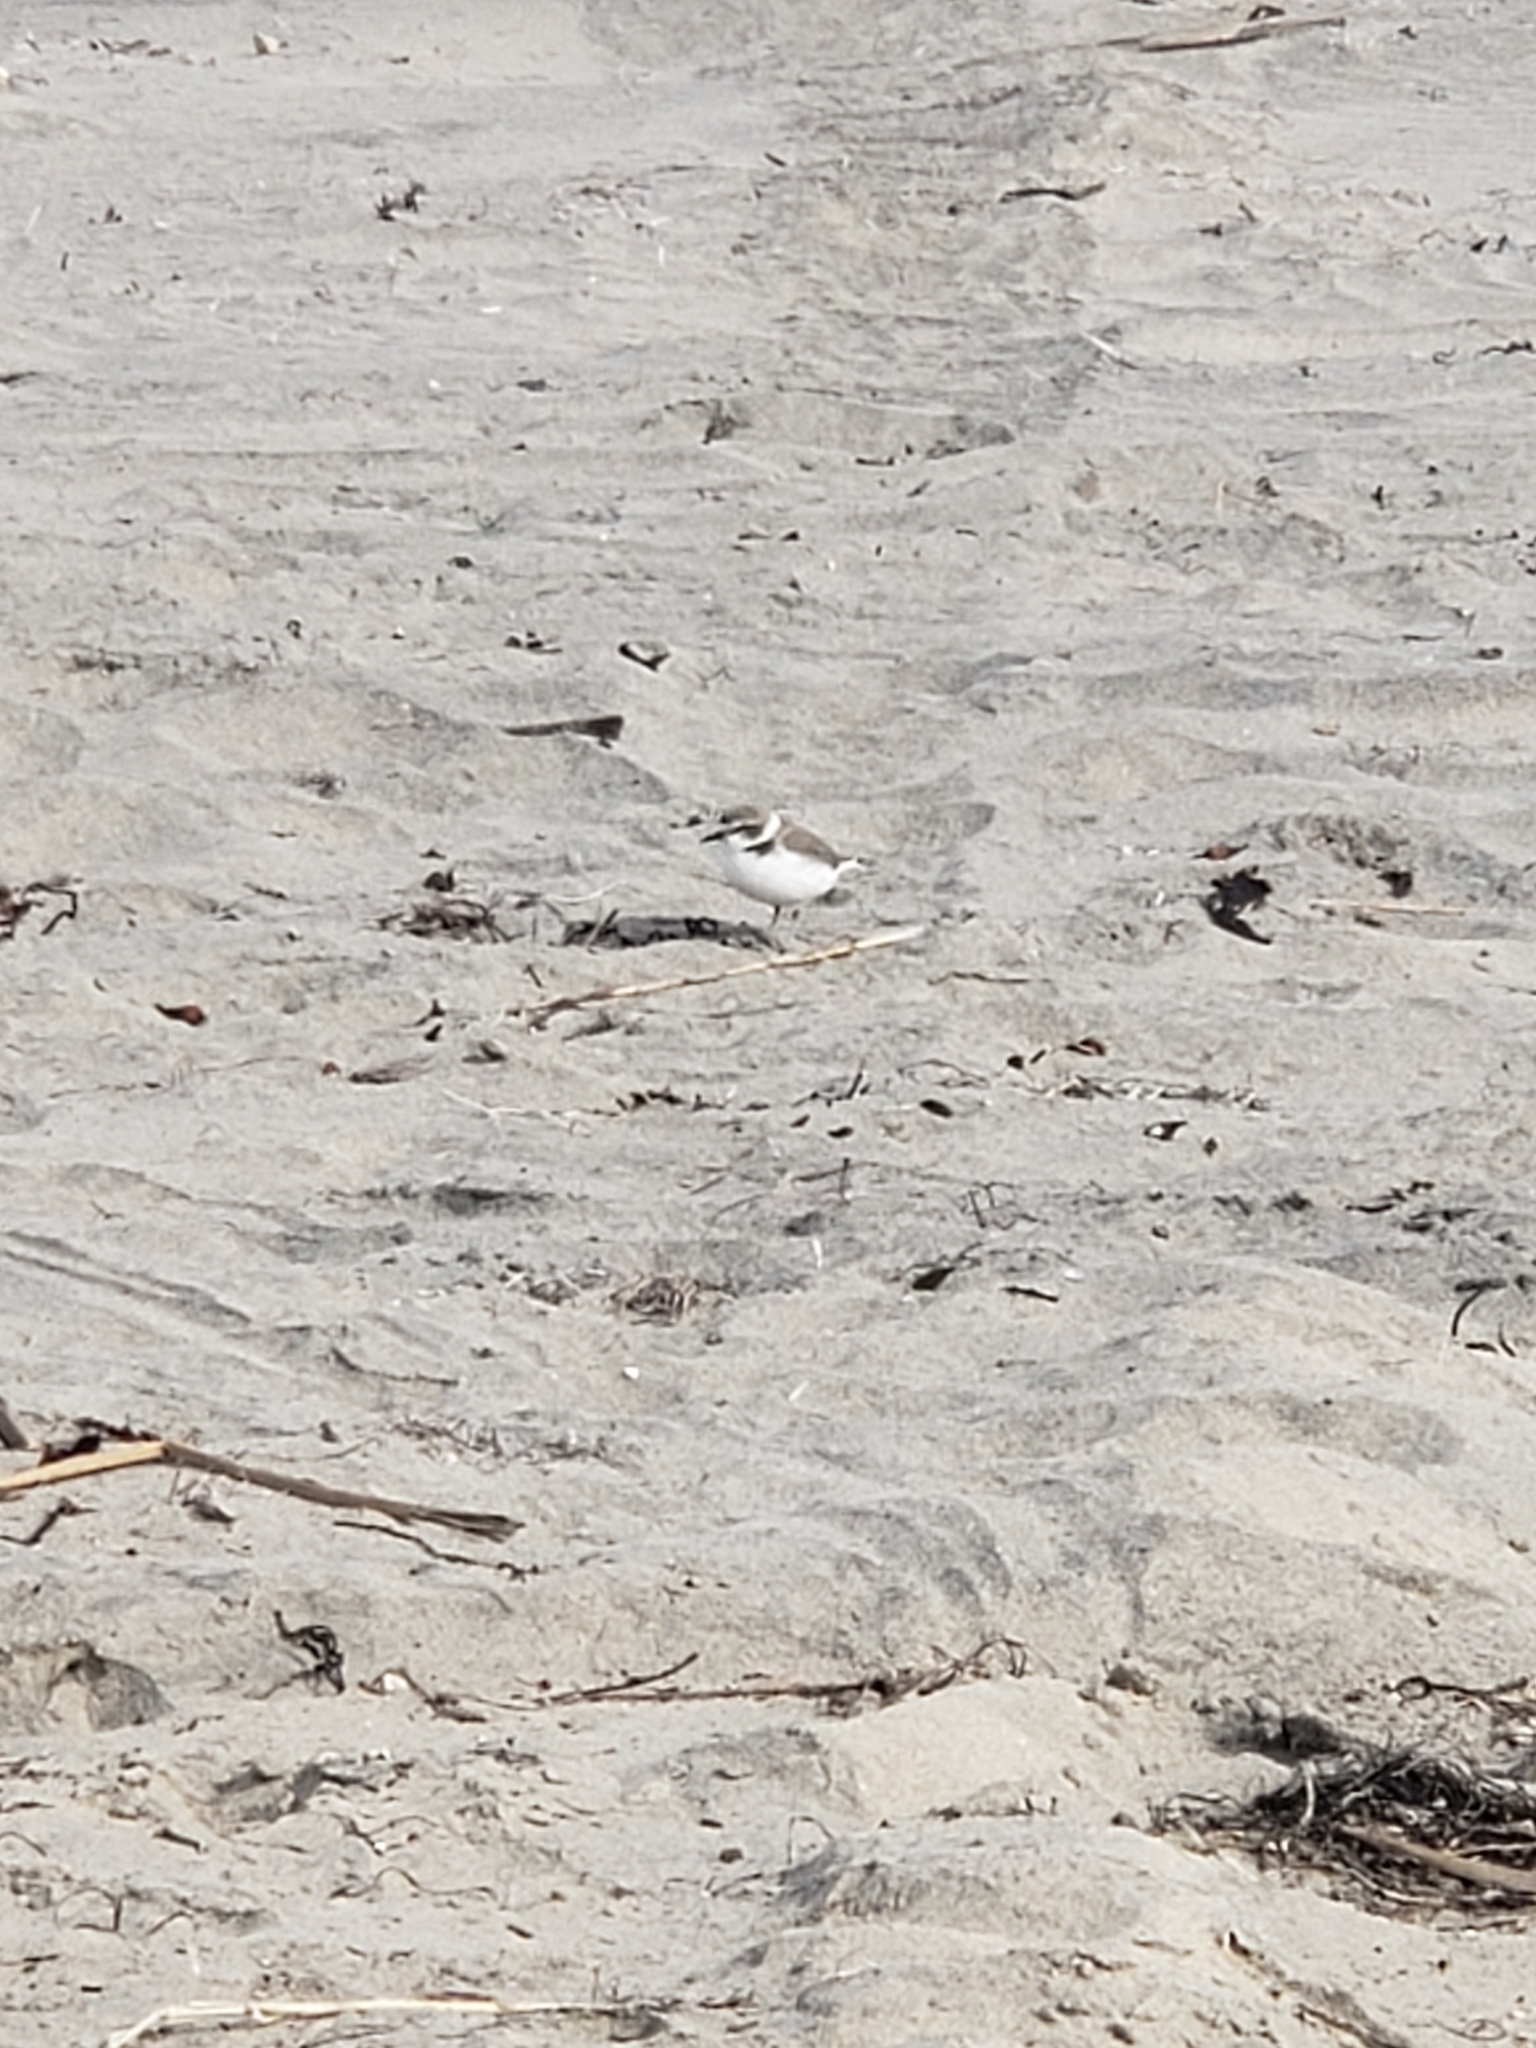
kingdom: Animalia
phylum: Chordata
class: Aves
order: Charadriiformes
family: Charadriidae
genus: Anarhynchus
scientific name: Anarhynchus
